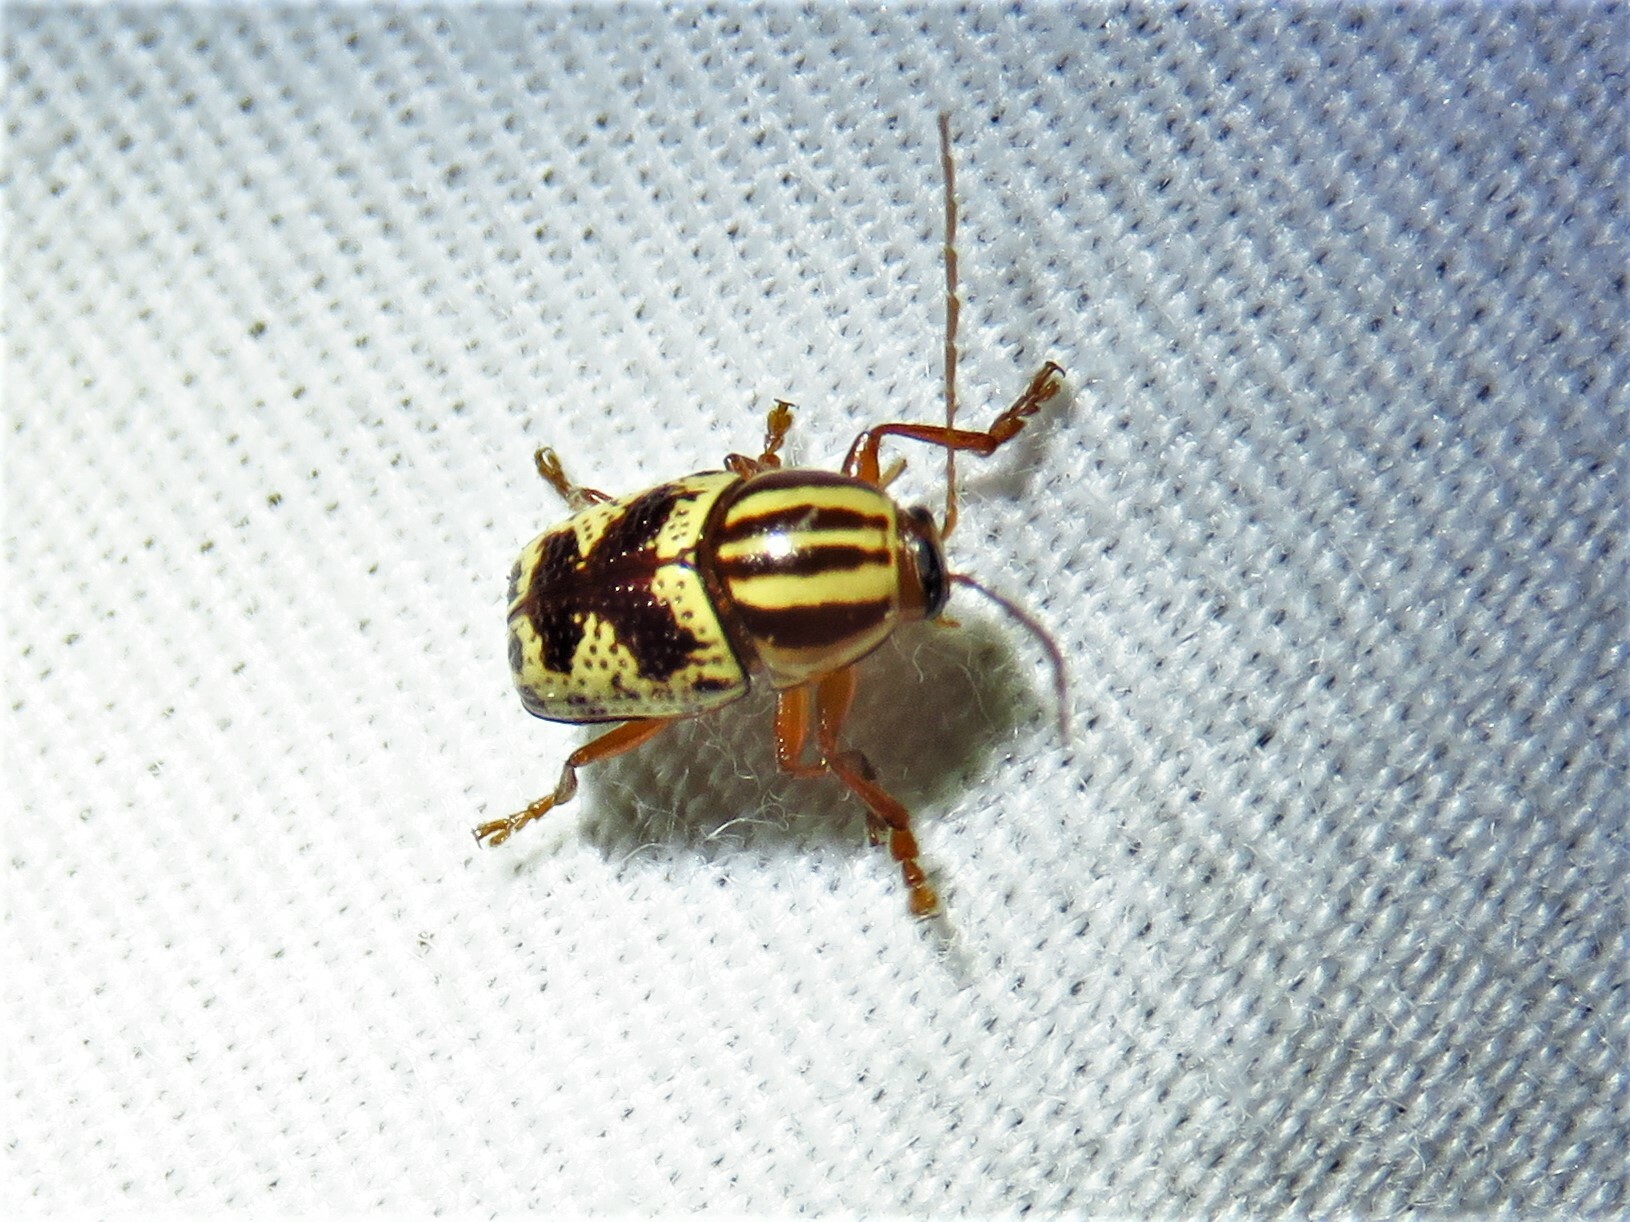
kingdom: Animalia
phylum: Arthropoda
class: Insecta
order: Coleoptera
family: Chrysomelidae
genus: Cryptocephalus
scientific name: Cryptocephalus leucomelas
